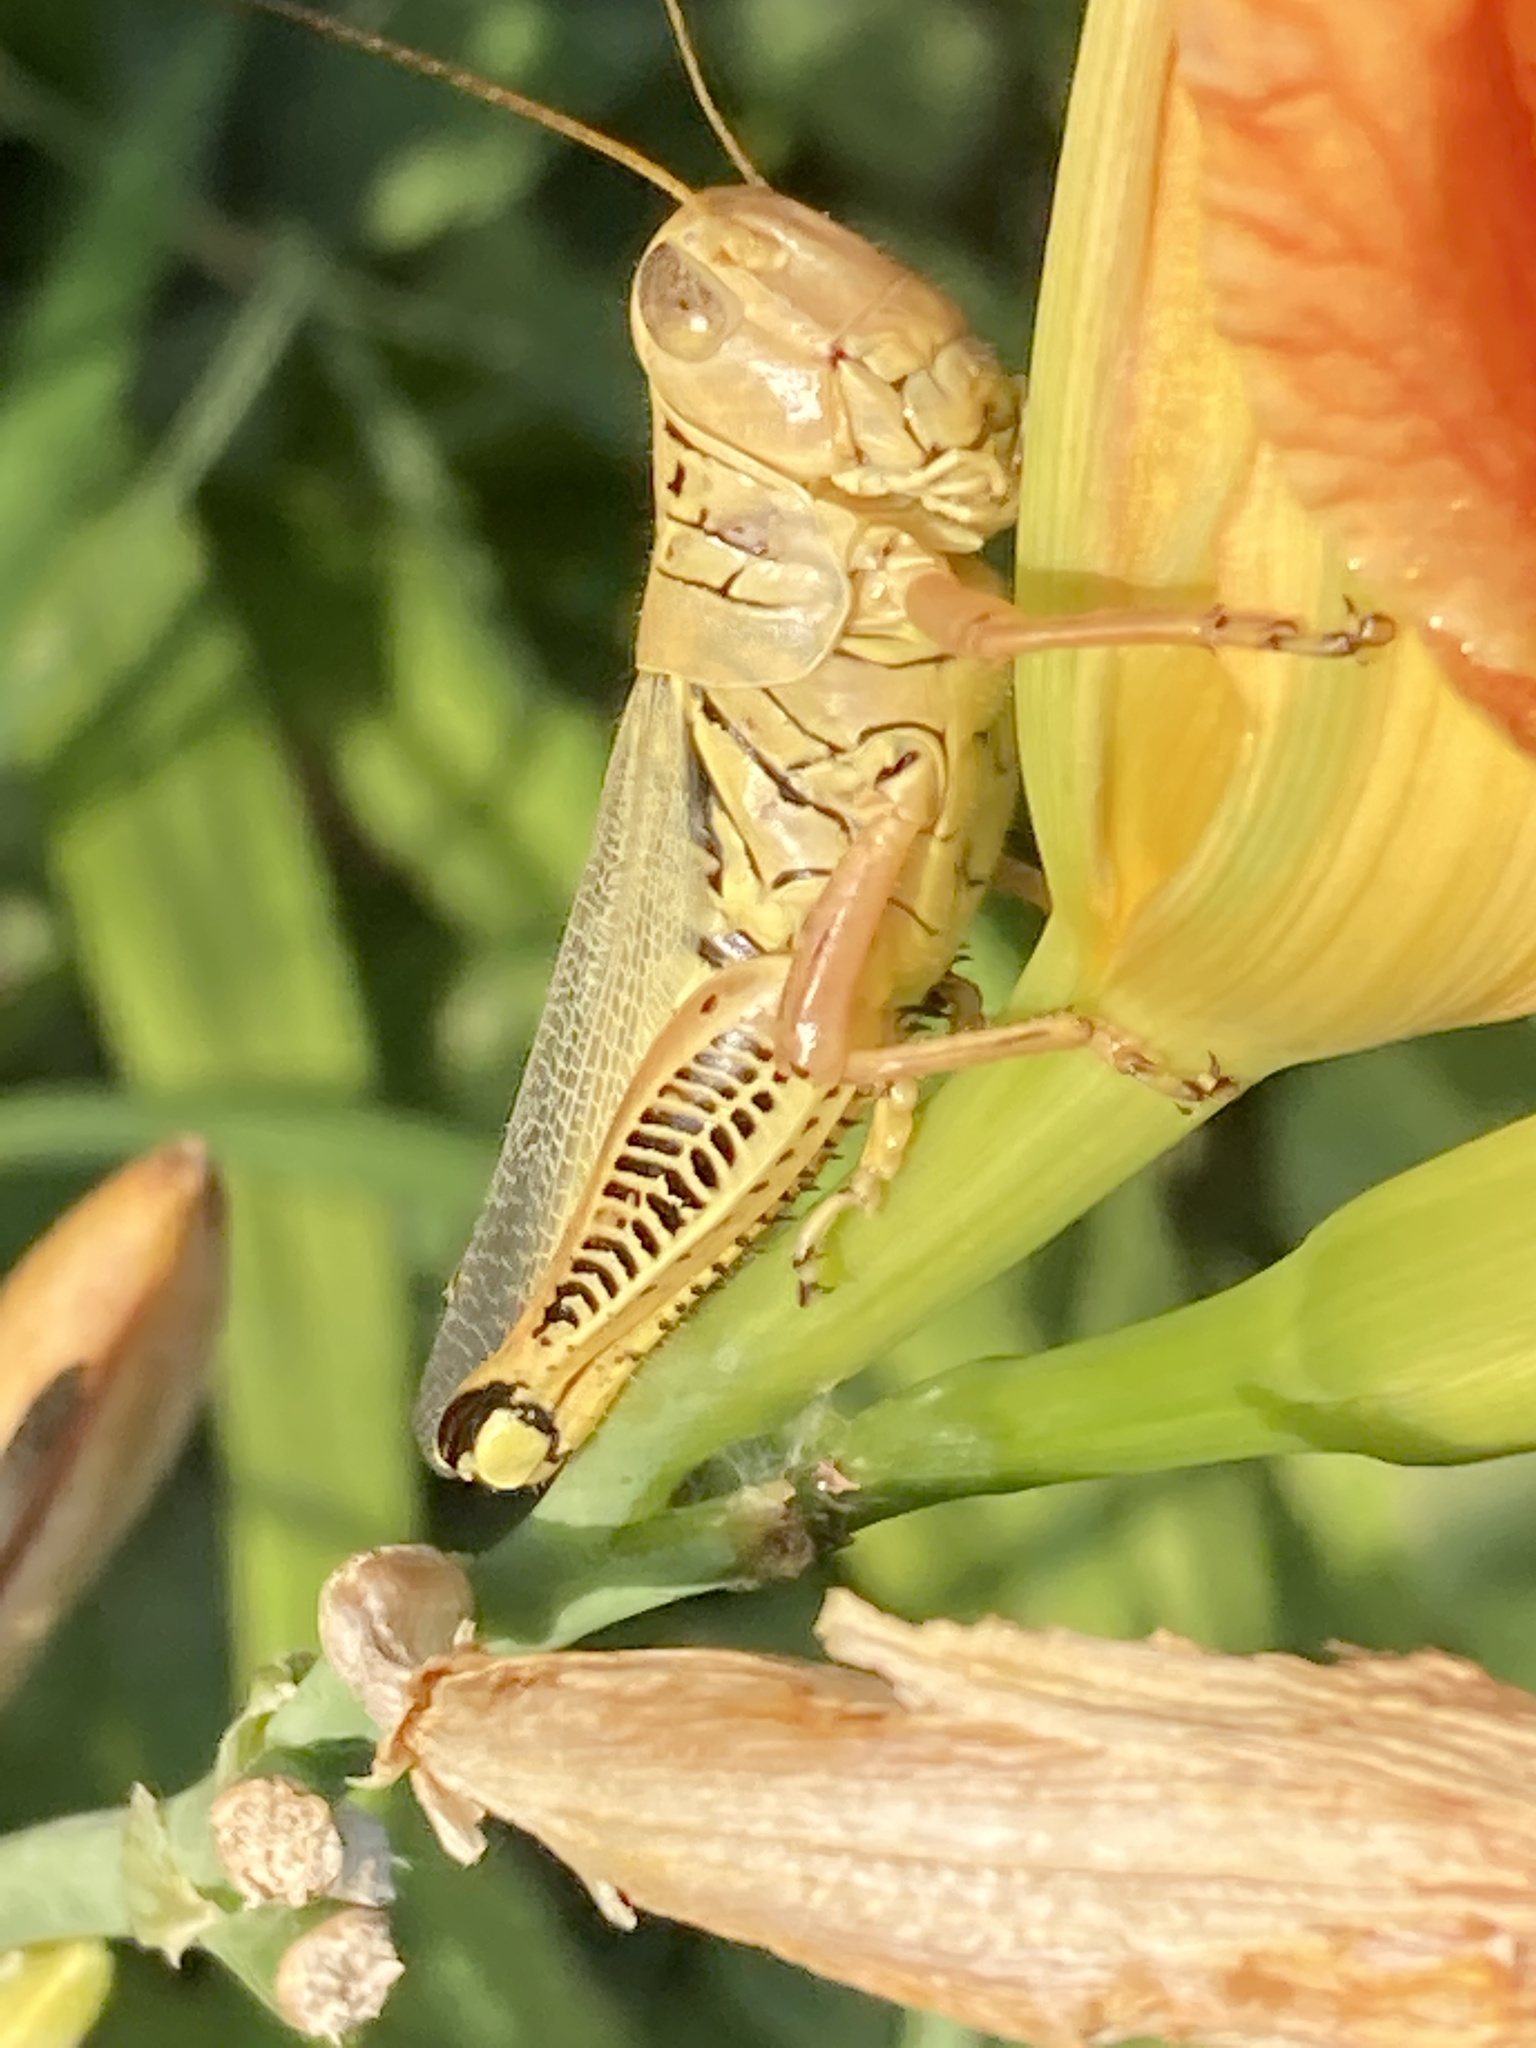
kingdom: Animalia
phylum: Arthropoda
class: Insecta
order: Orthoptera
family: Acrididae
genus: Melanoplus
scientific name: Melanoplus differentialis
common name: Differential grasshopper
